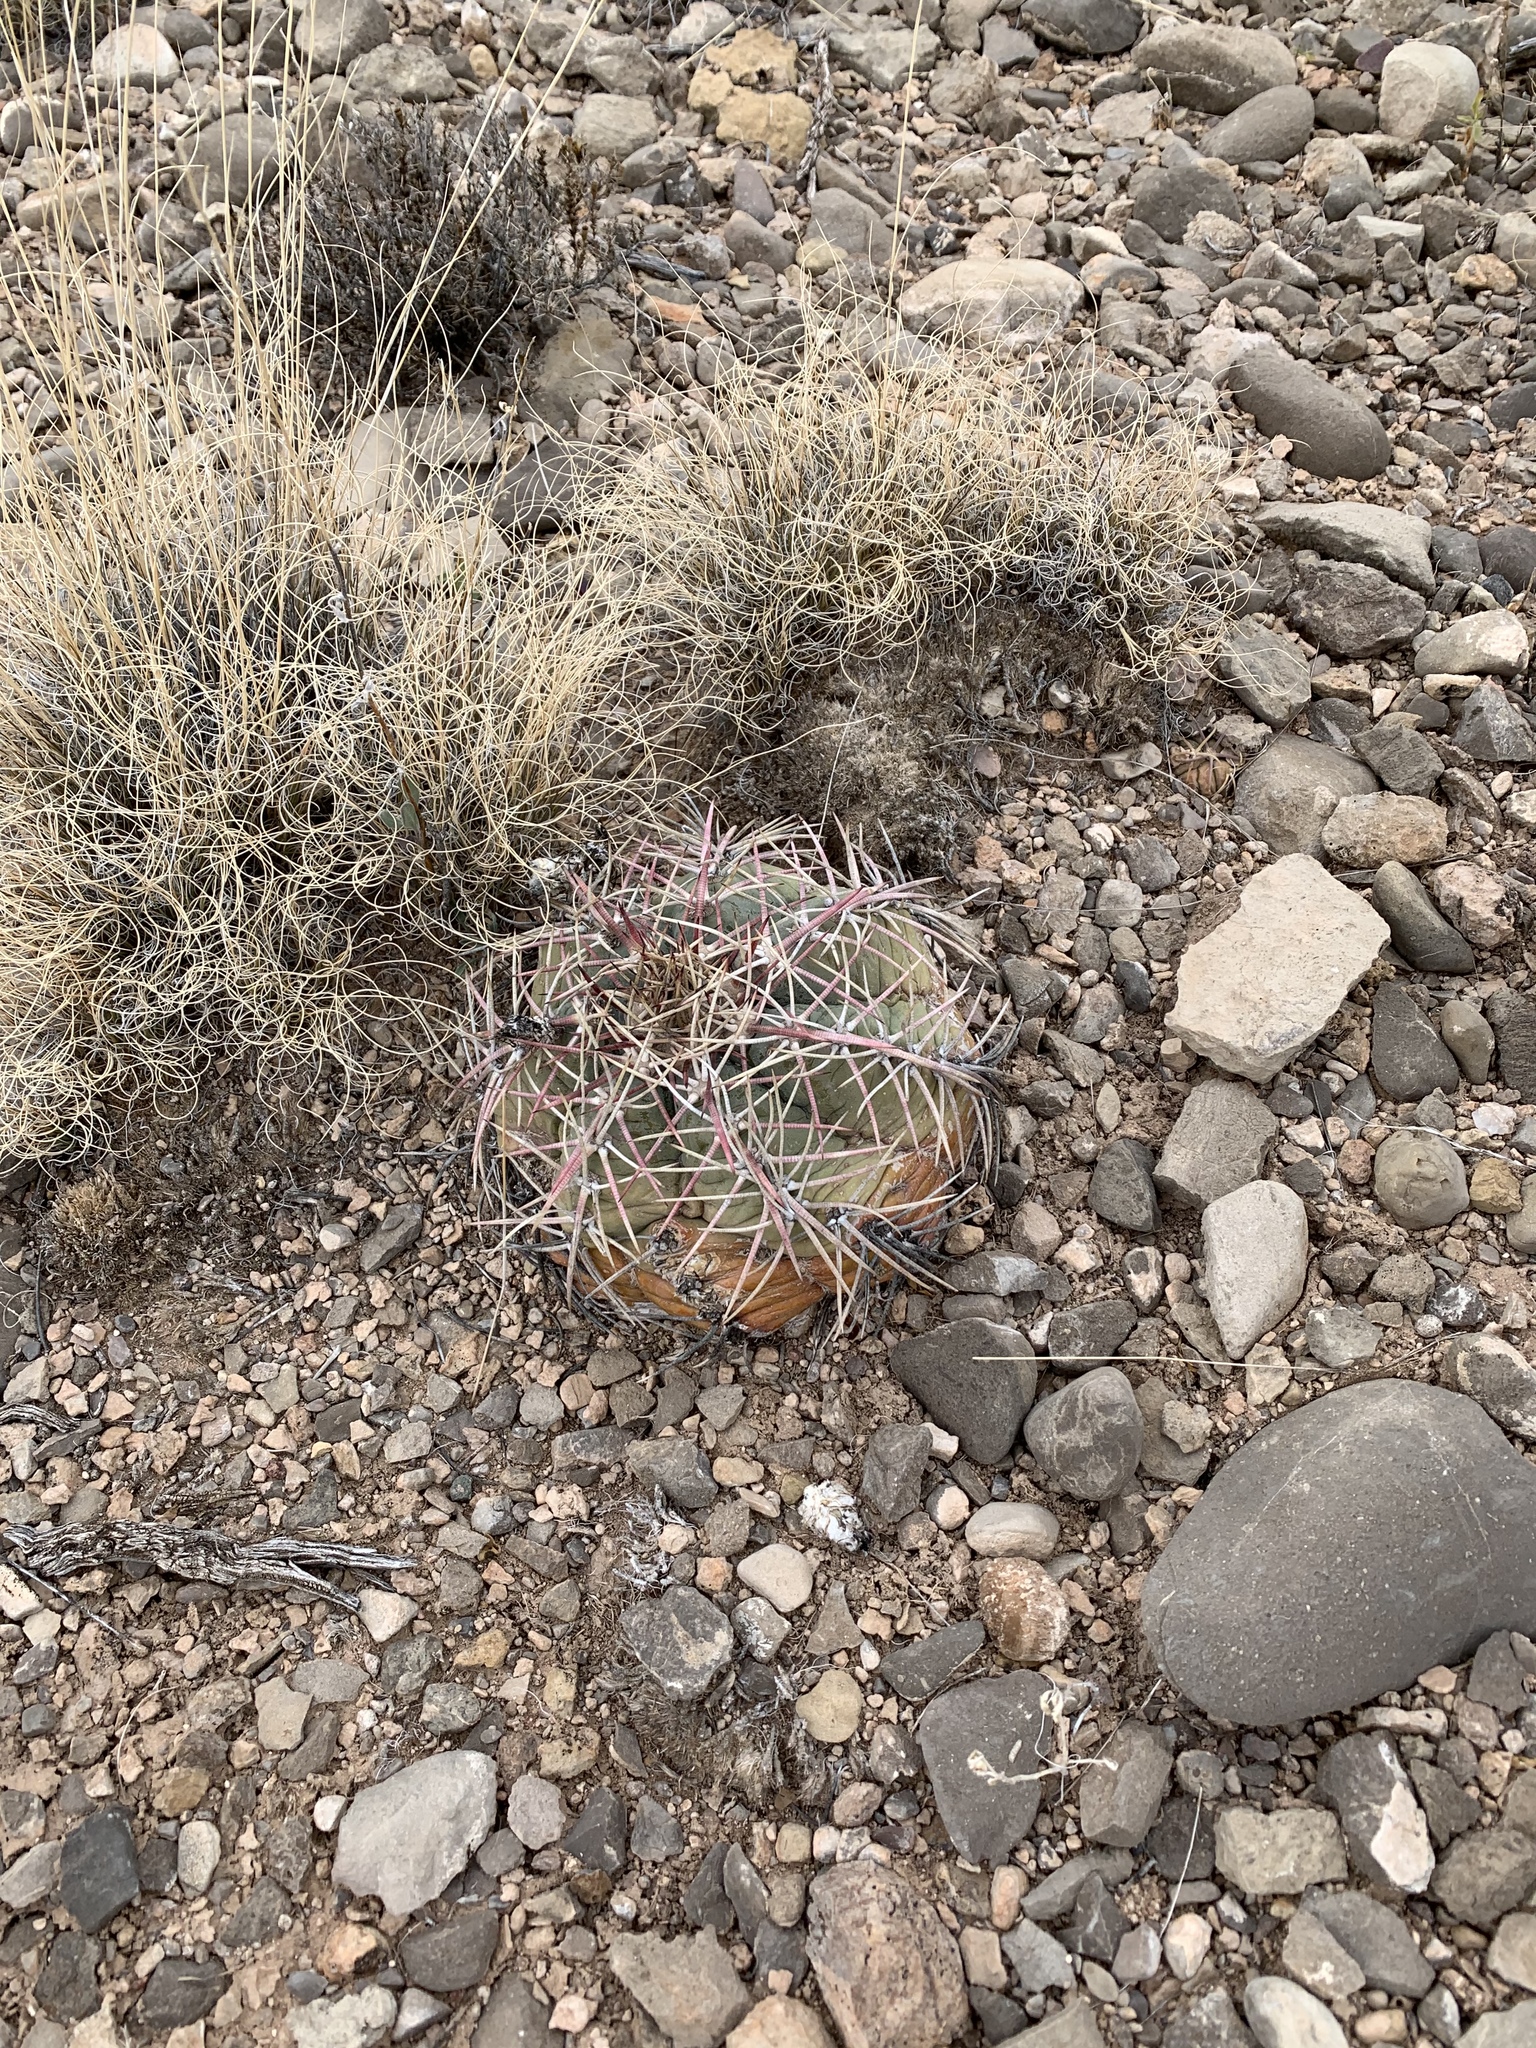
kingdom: Plantae
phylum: Tracheophyta
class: Magnoliopsida
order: Caryophyllales
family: Cactaceae
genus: Echinocactus
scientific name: Echinocactus horizonthalonius
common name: Devilshead
